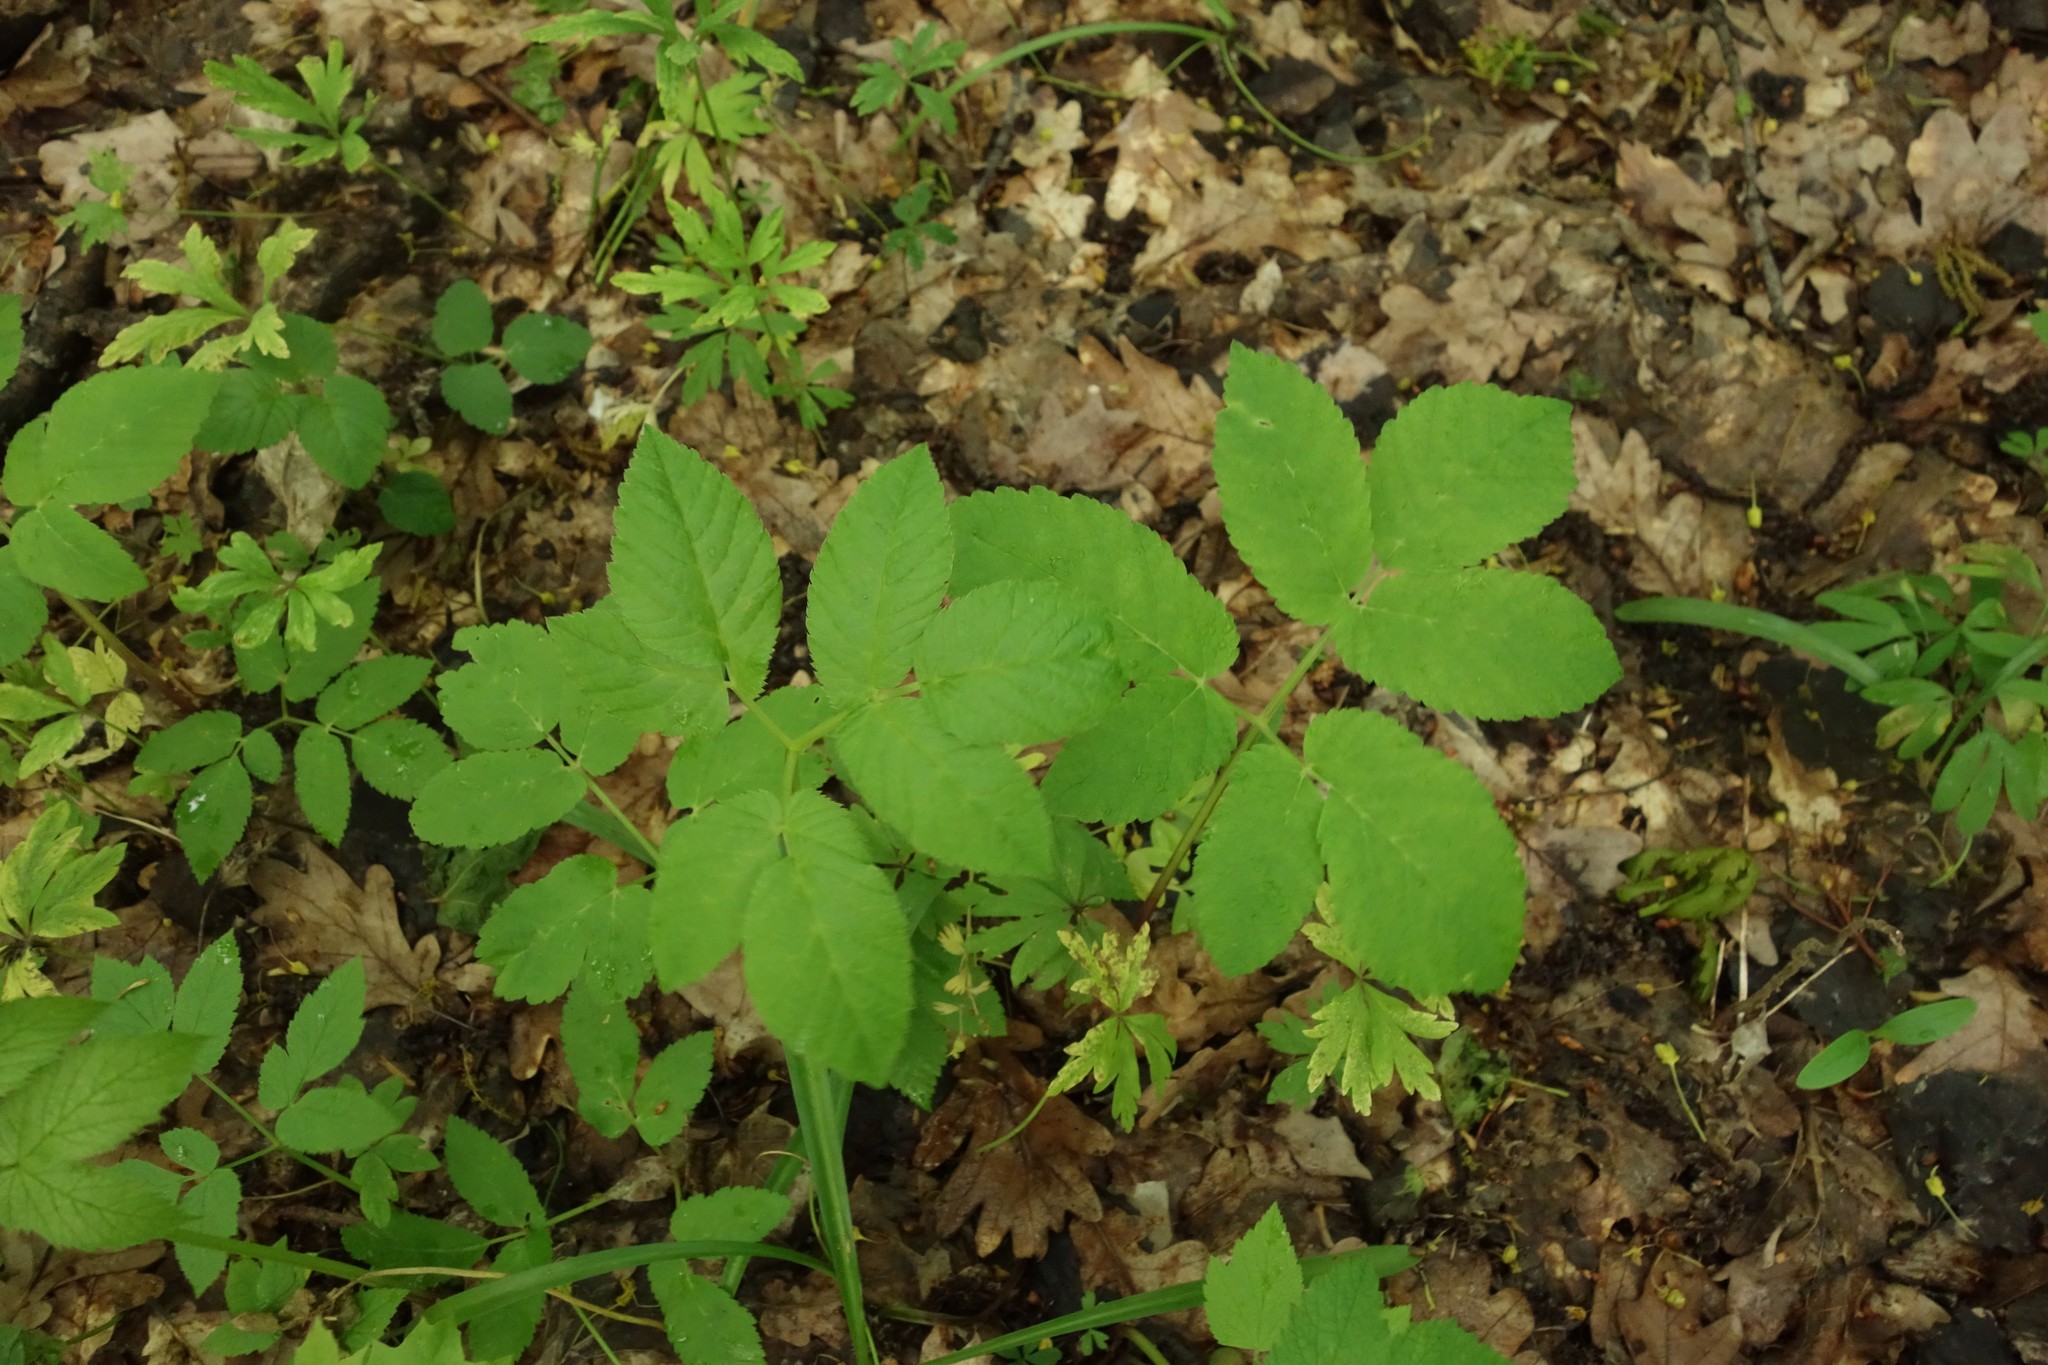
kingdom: Plantae
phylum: Tracheophyta
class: Magnoliopsida
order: Apiales
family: Apiaceae
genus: Aegopodium
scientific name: Aegopodium podagraria
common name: Ground-elder
